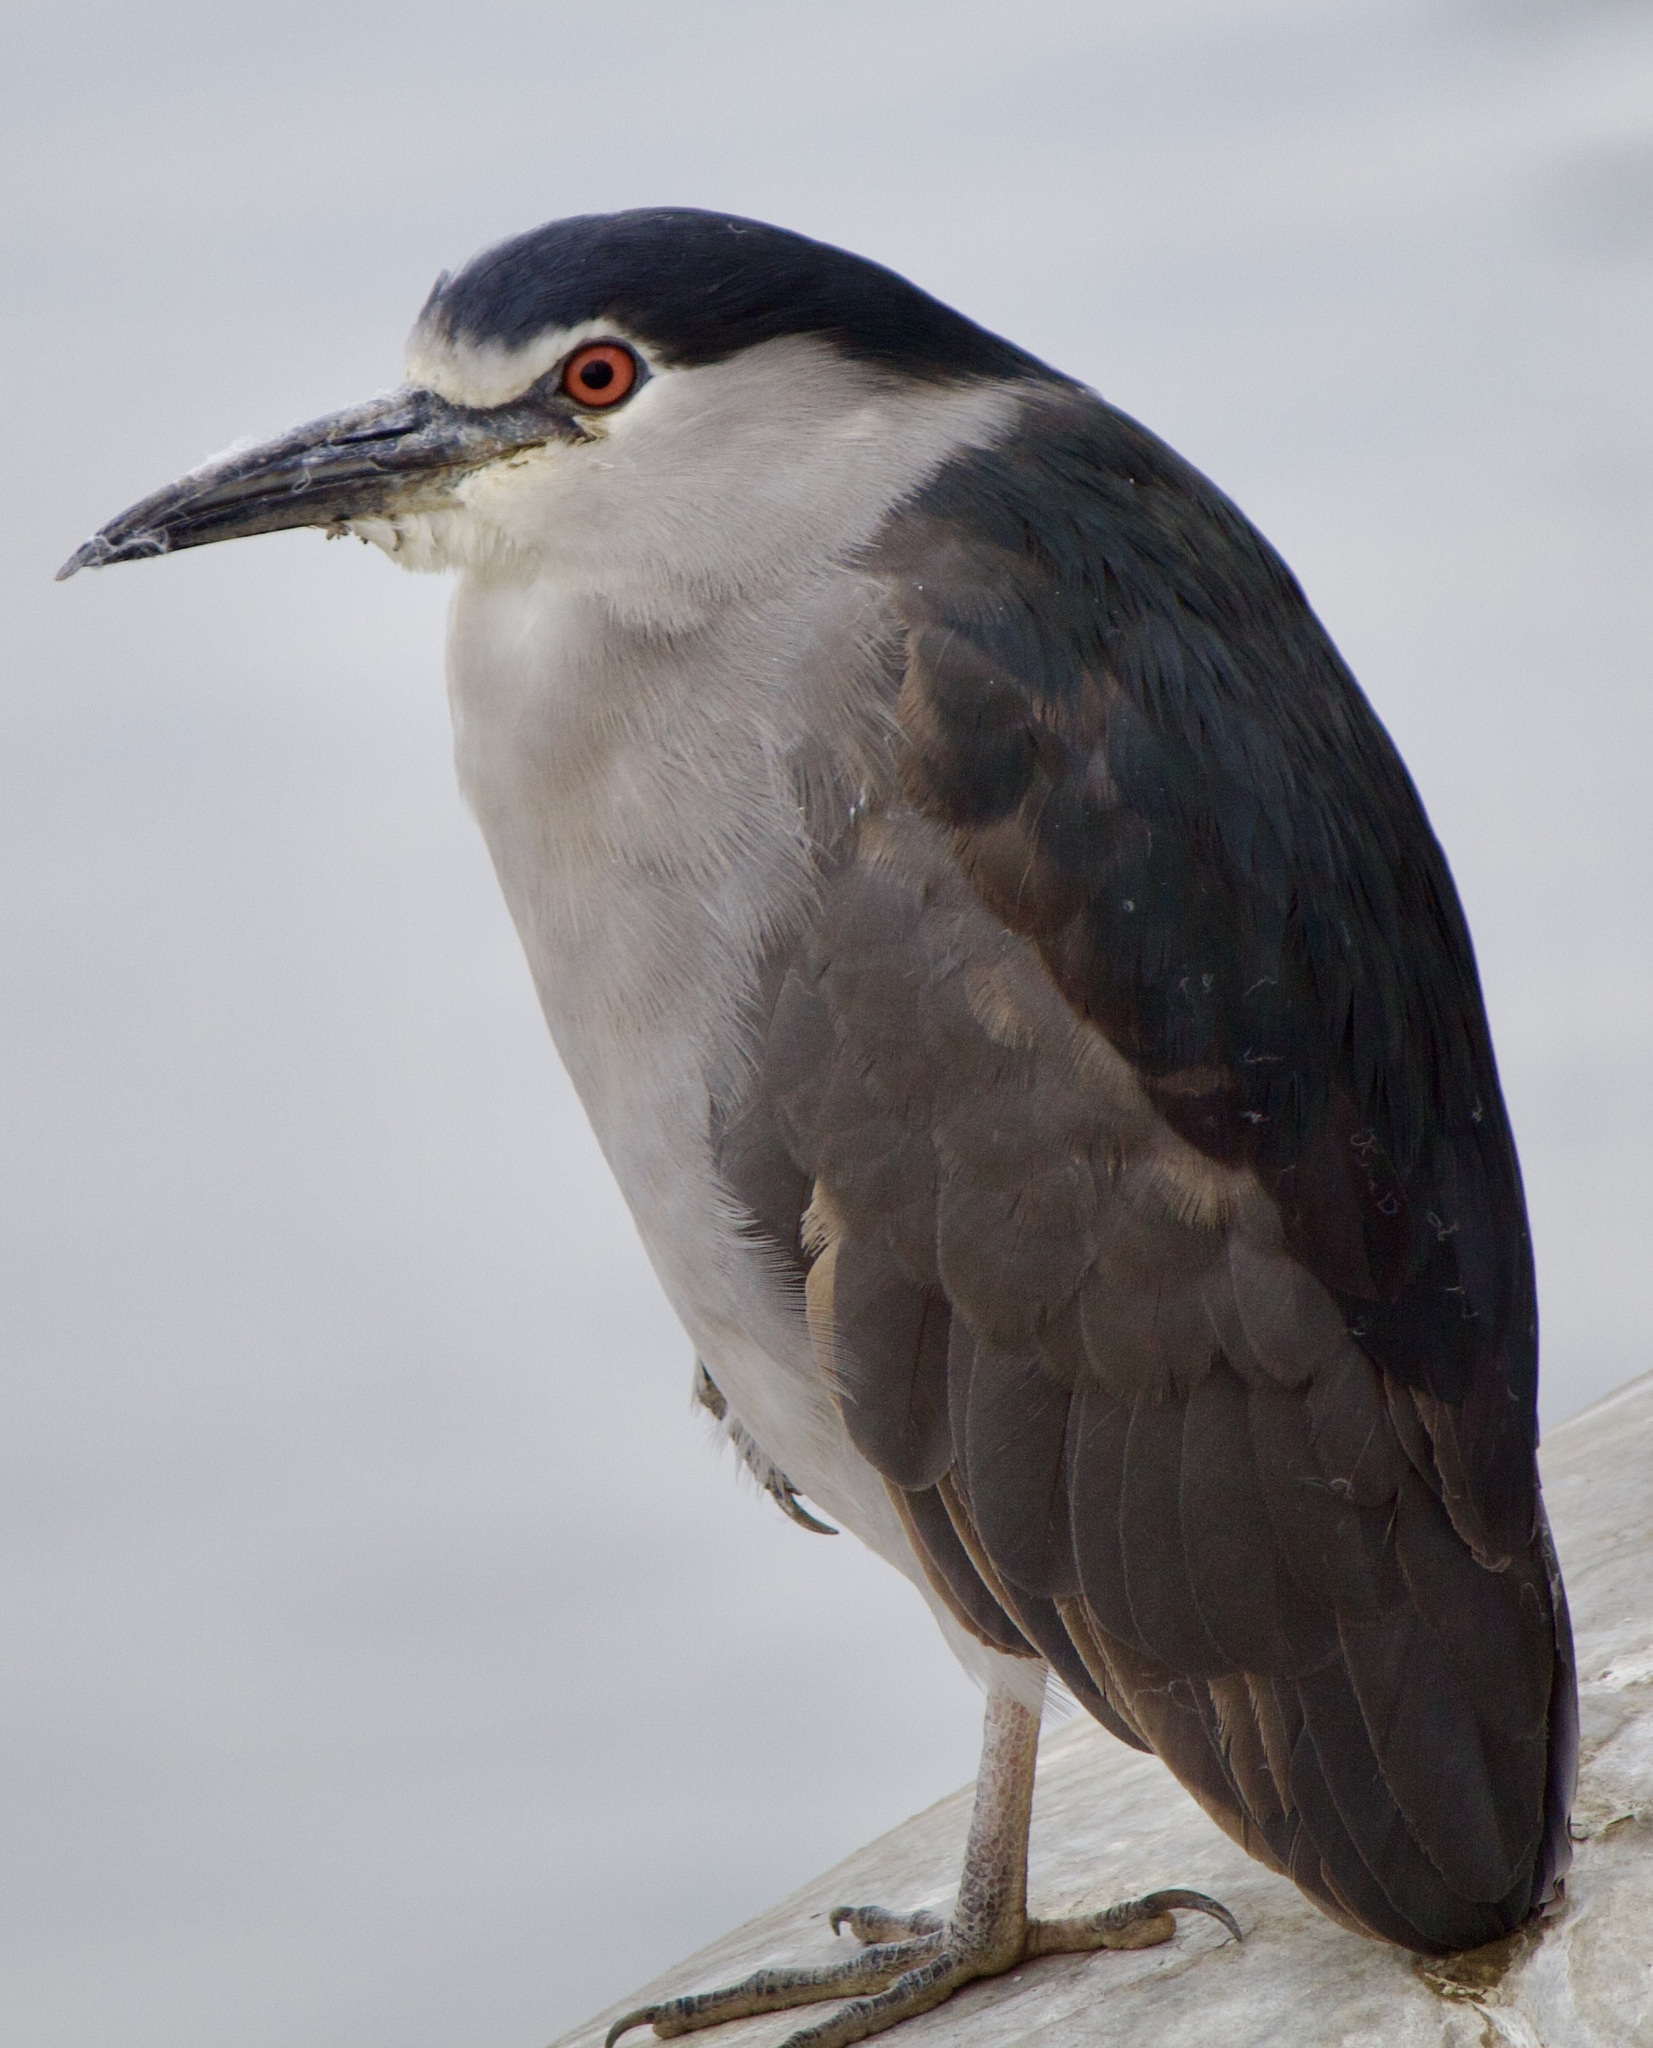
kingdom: Animalia
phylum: Chordata
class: Aves
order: Pelecaniformes
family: Ardeidae
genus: Nycticorax
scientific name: Nycticorax nycticorax
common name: Black-crowned night heron
